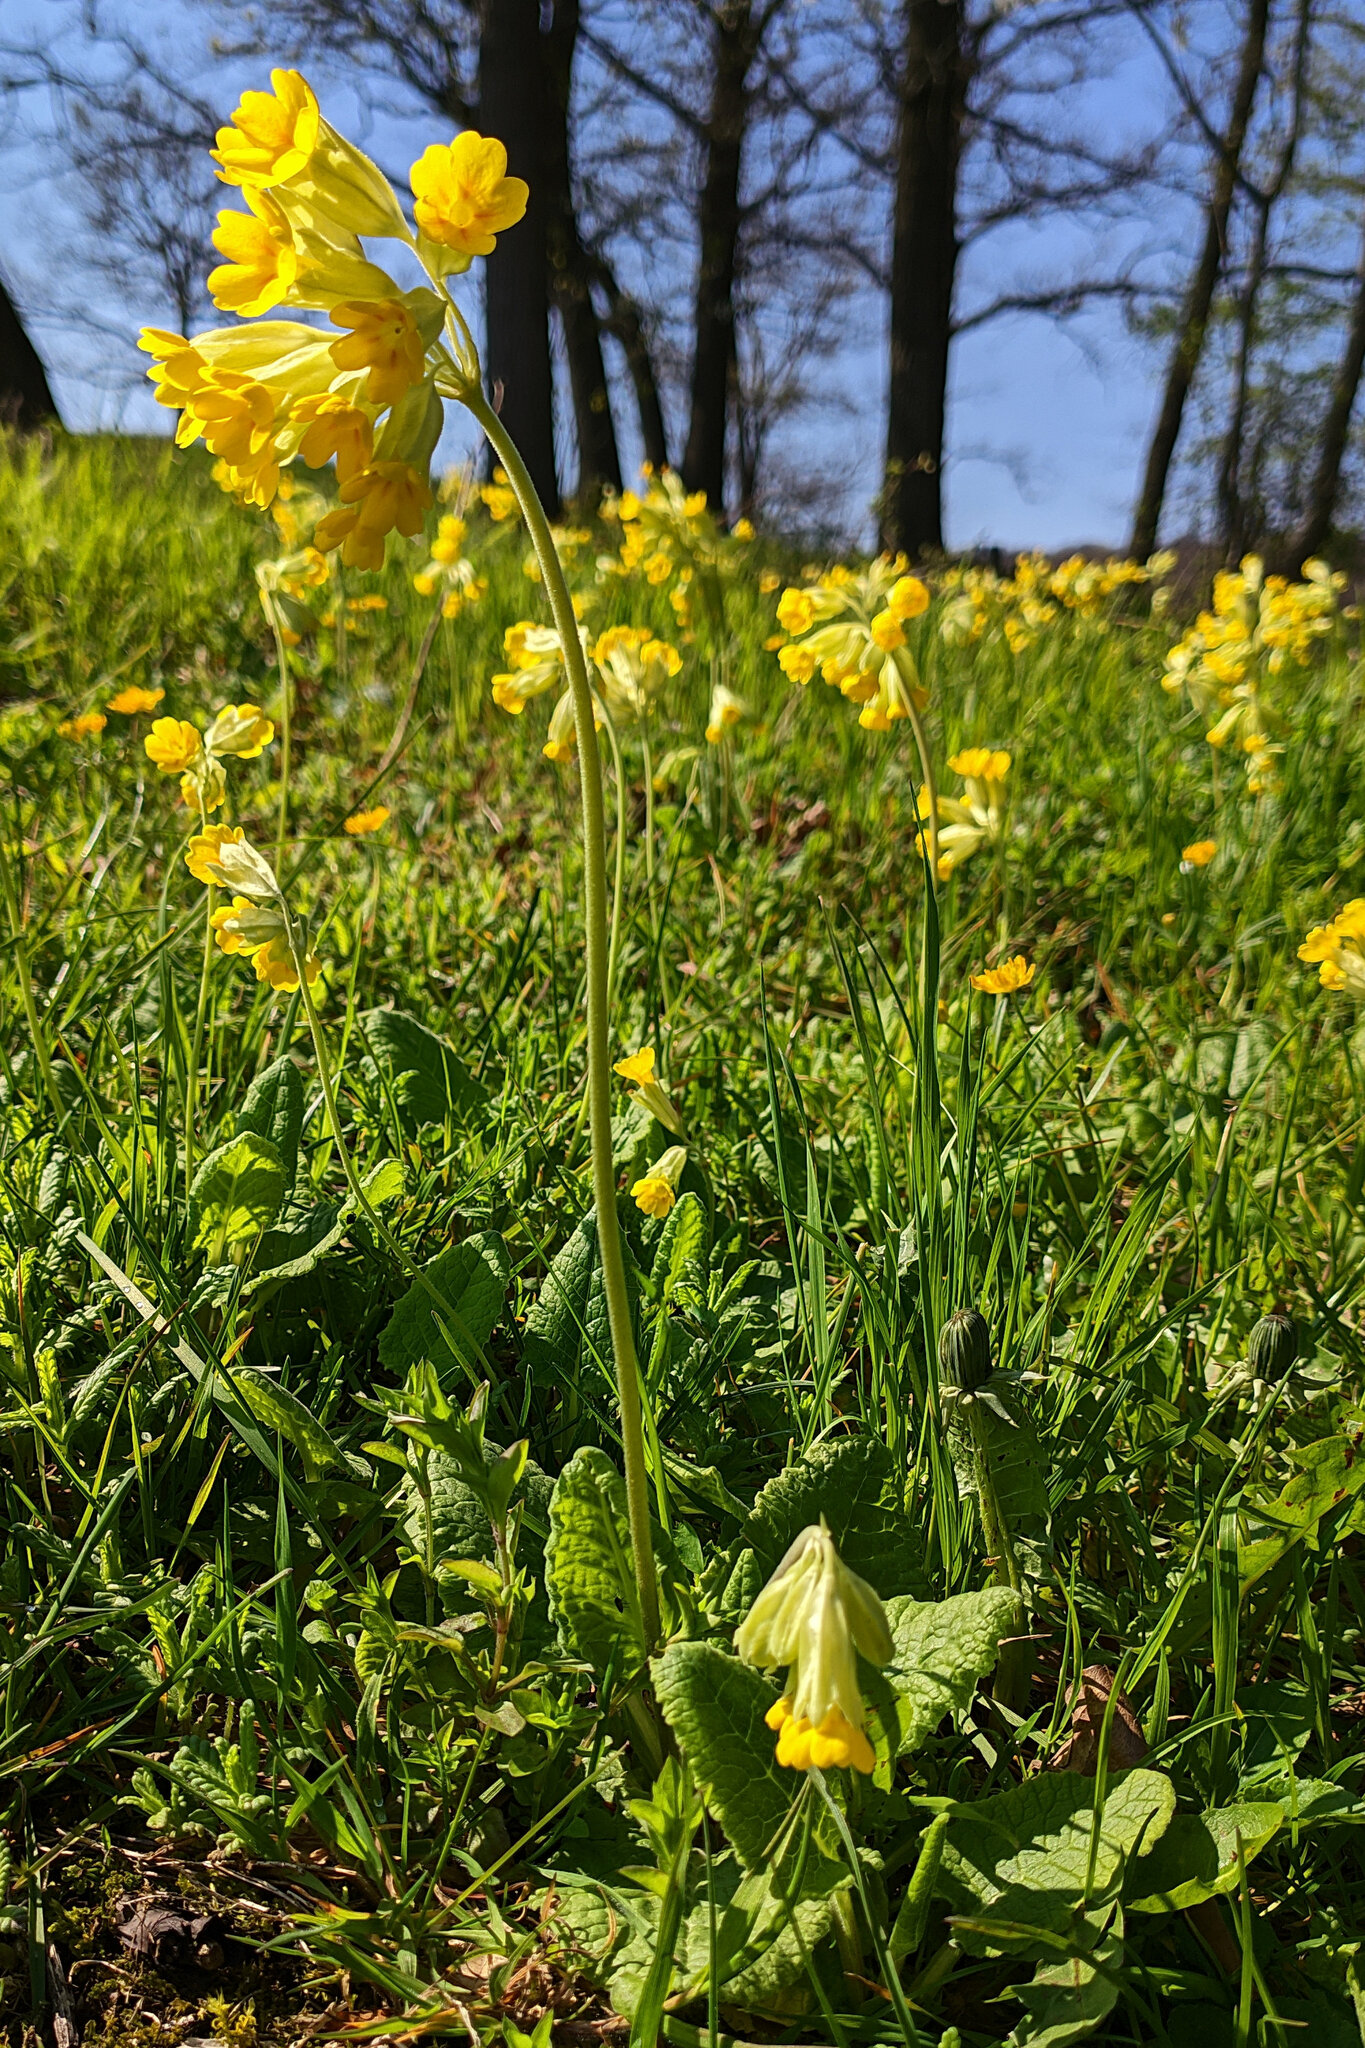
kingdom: Plantae
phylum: Tracheophyta
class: Magnoliopsida
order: Ericales
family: Primulaceae
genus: Primula
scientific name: Primula veris
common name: Cowslip
